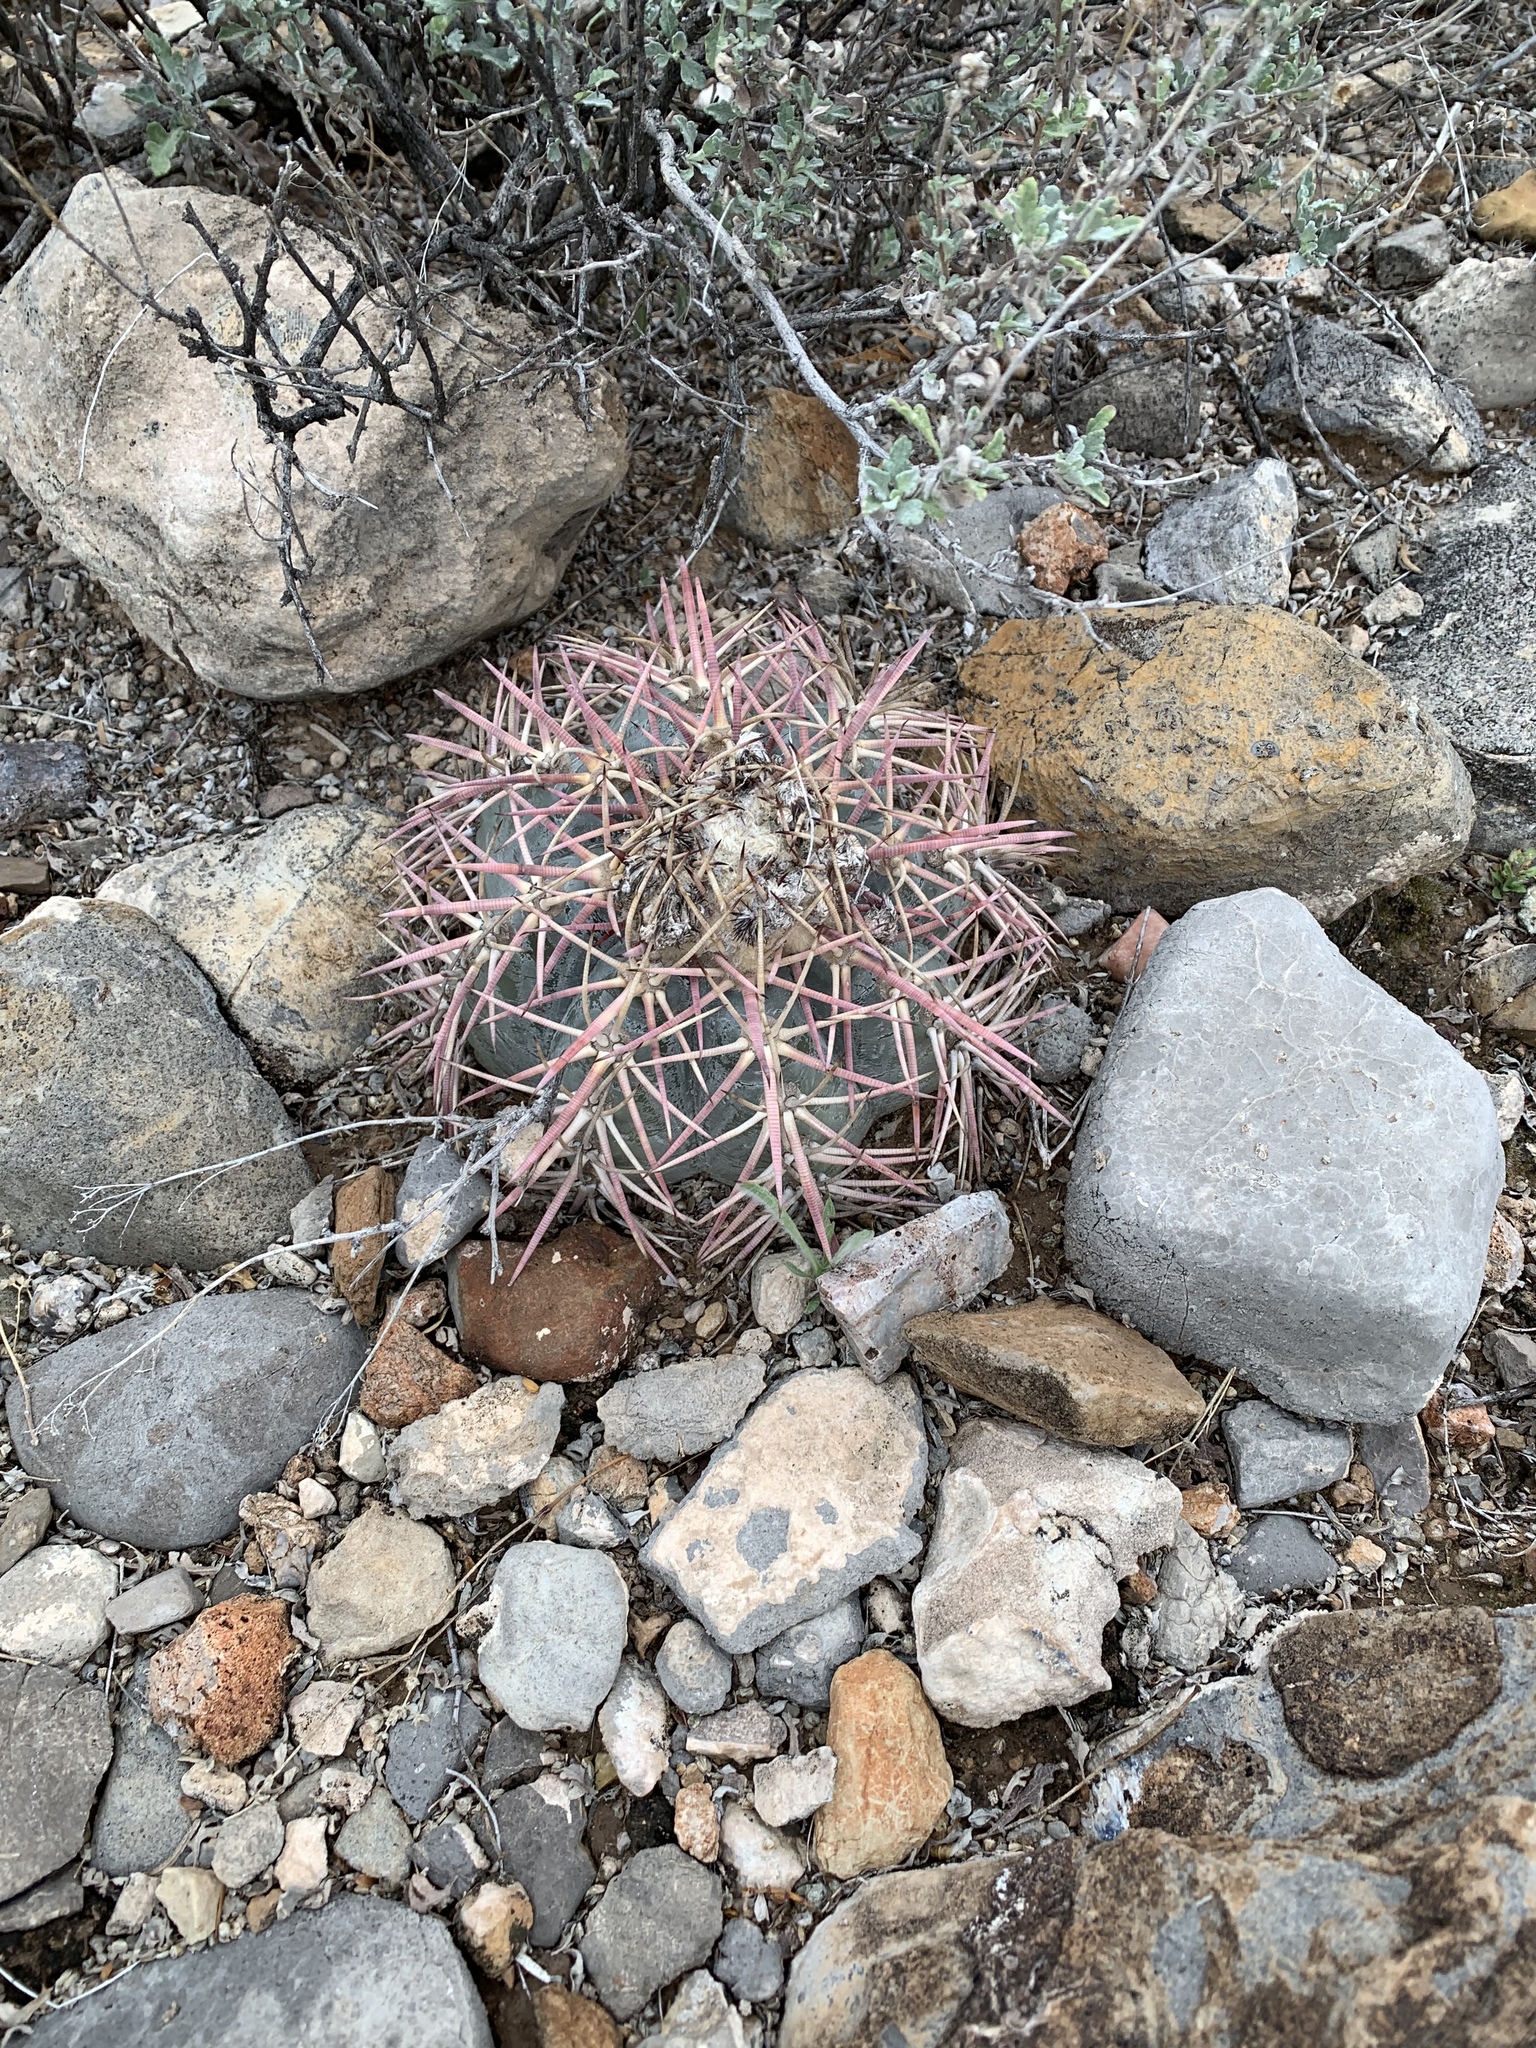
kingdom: Plantae
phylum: Tracheophyta
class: Magnoliopsida
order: Caryophyllales
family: Cactaceae
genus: Echinocactus
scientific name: Echinocactus horizonthalonius
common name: Devilshead
